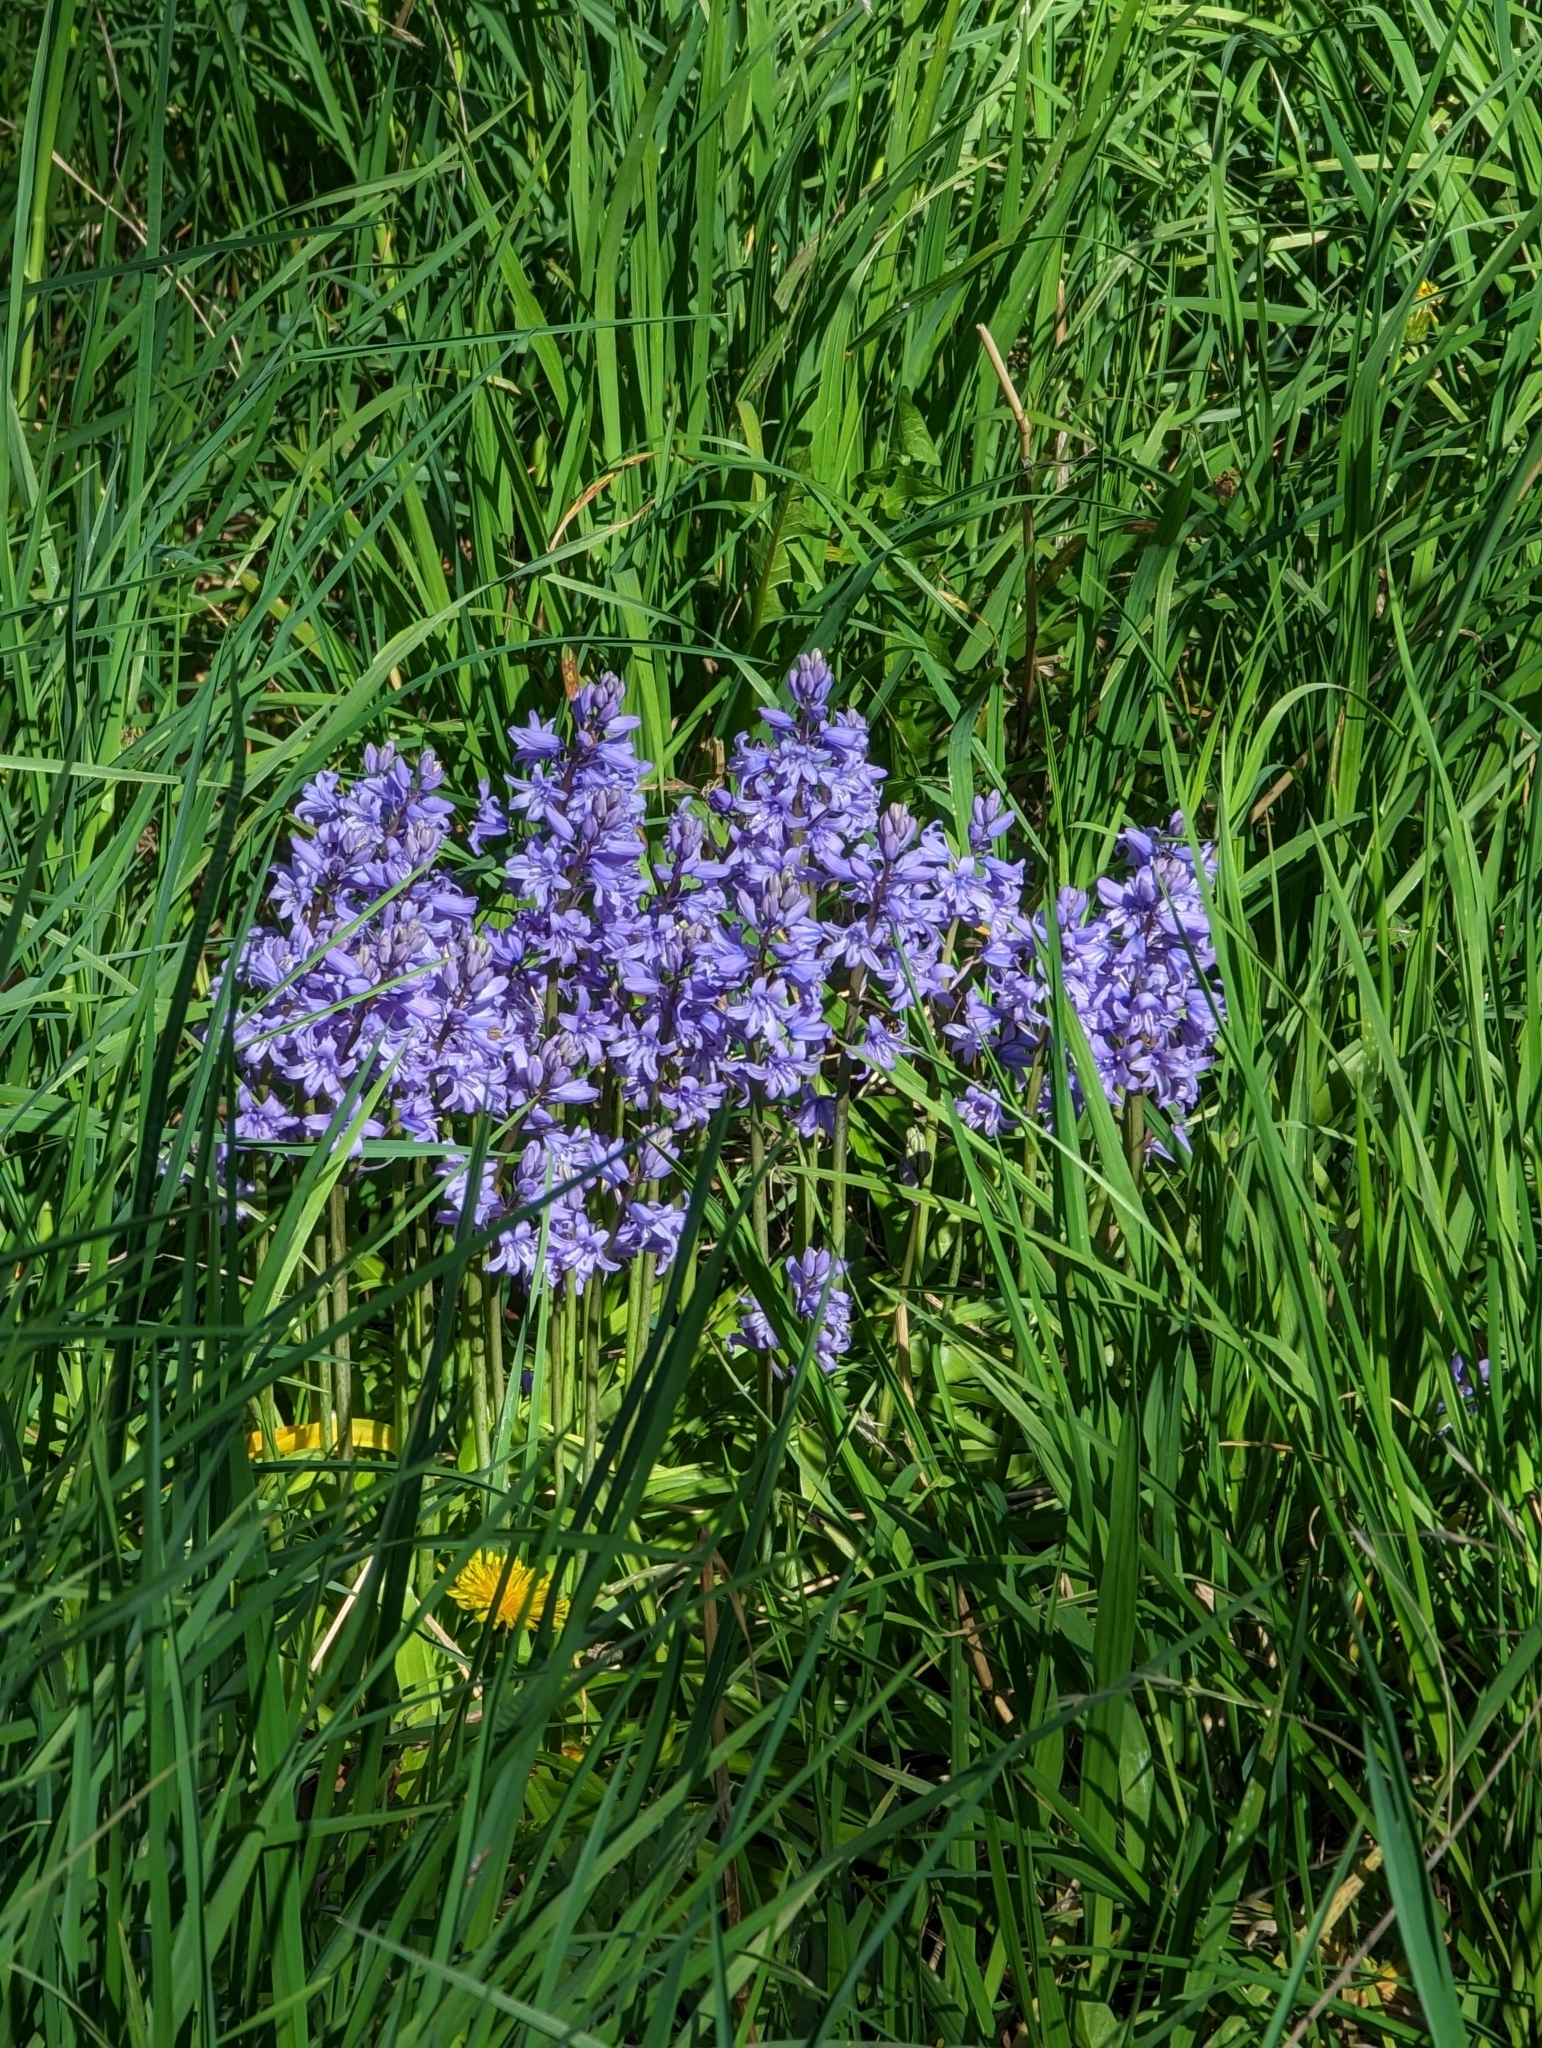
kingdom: Plantae
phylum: Tracheophyta
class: Liliopsida
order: Asparagales
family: Asparagaceae
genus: Hyacinthoides
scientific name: Hyacinthoides hispanica
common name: Spanish bluebell
